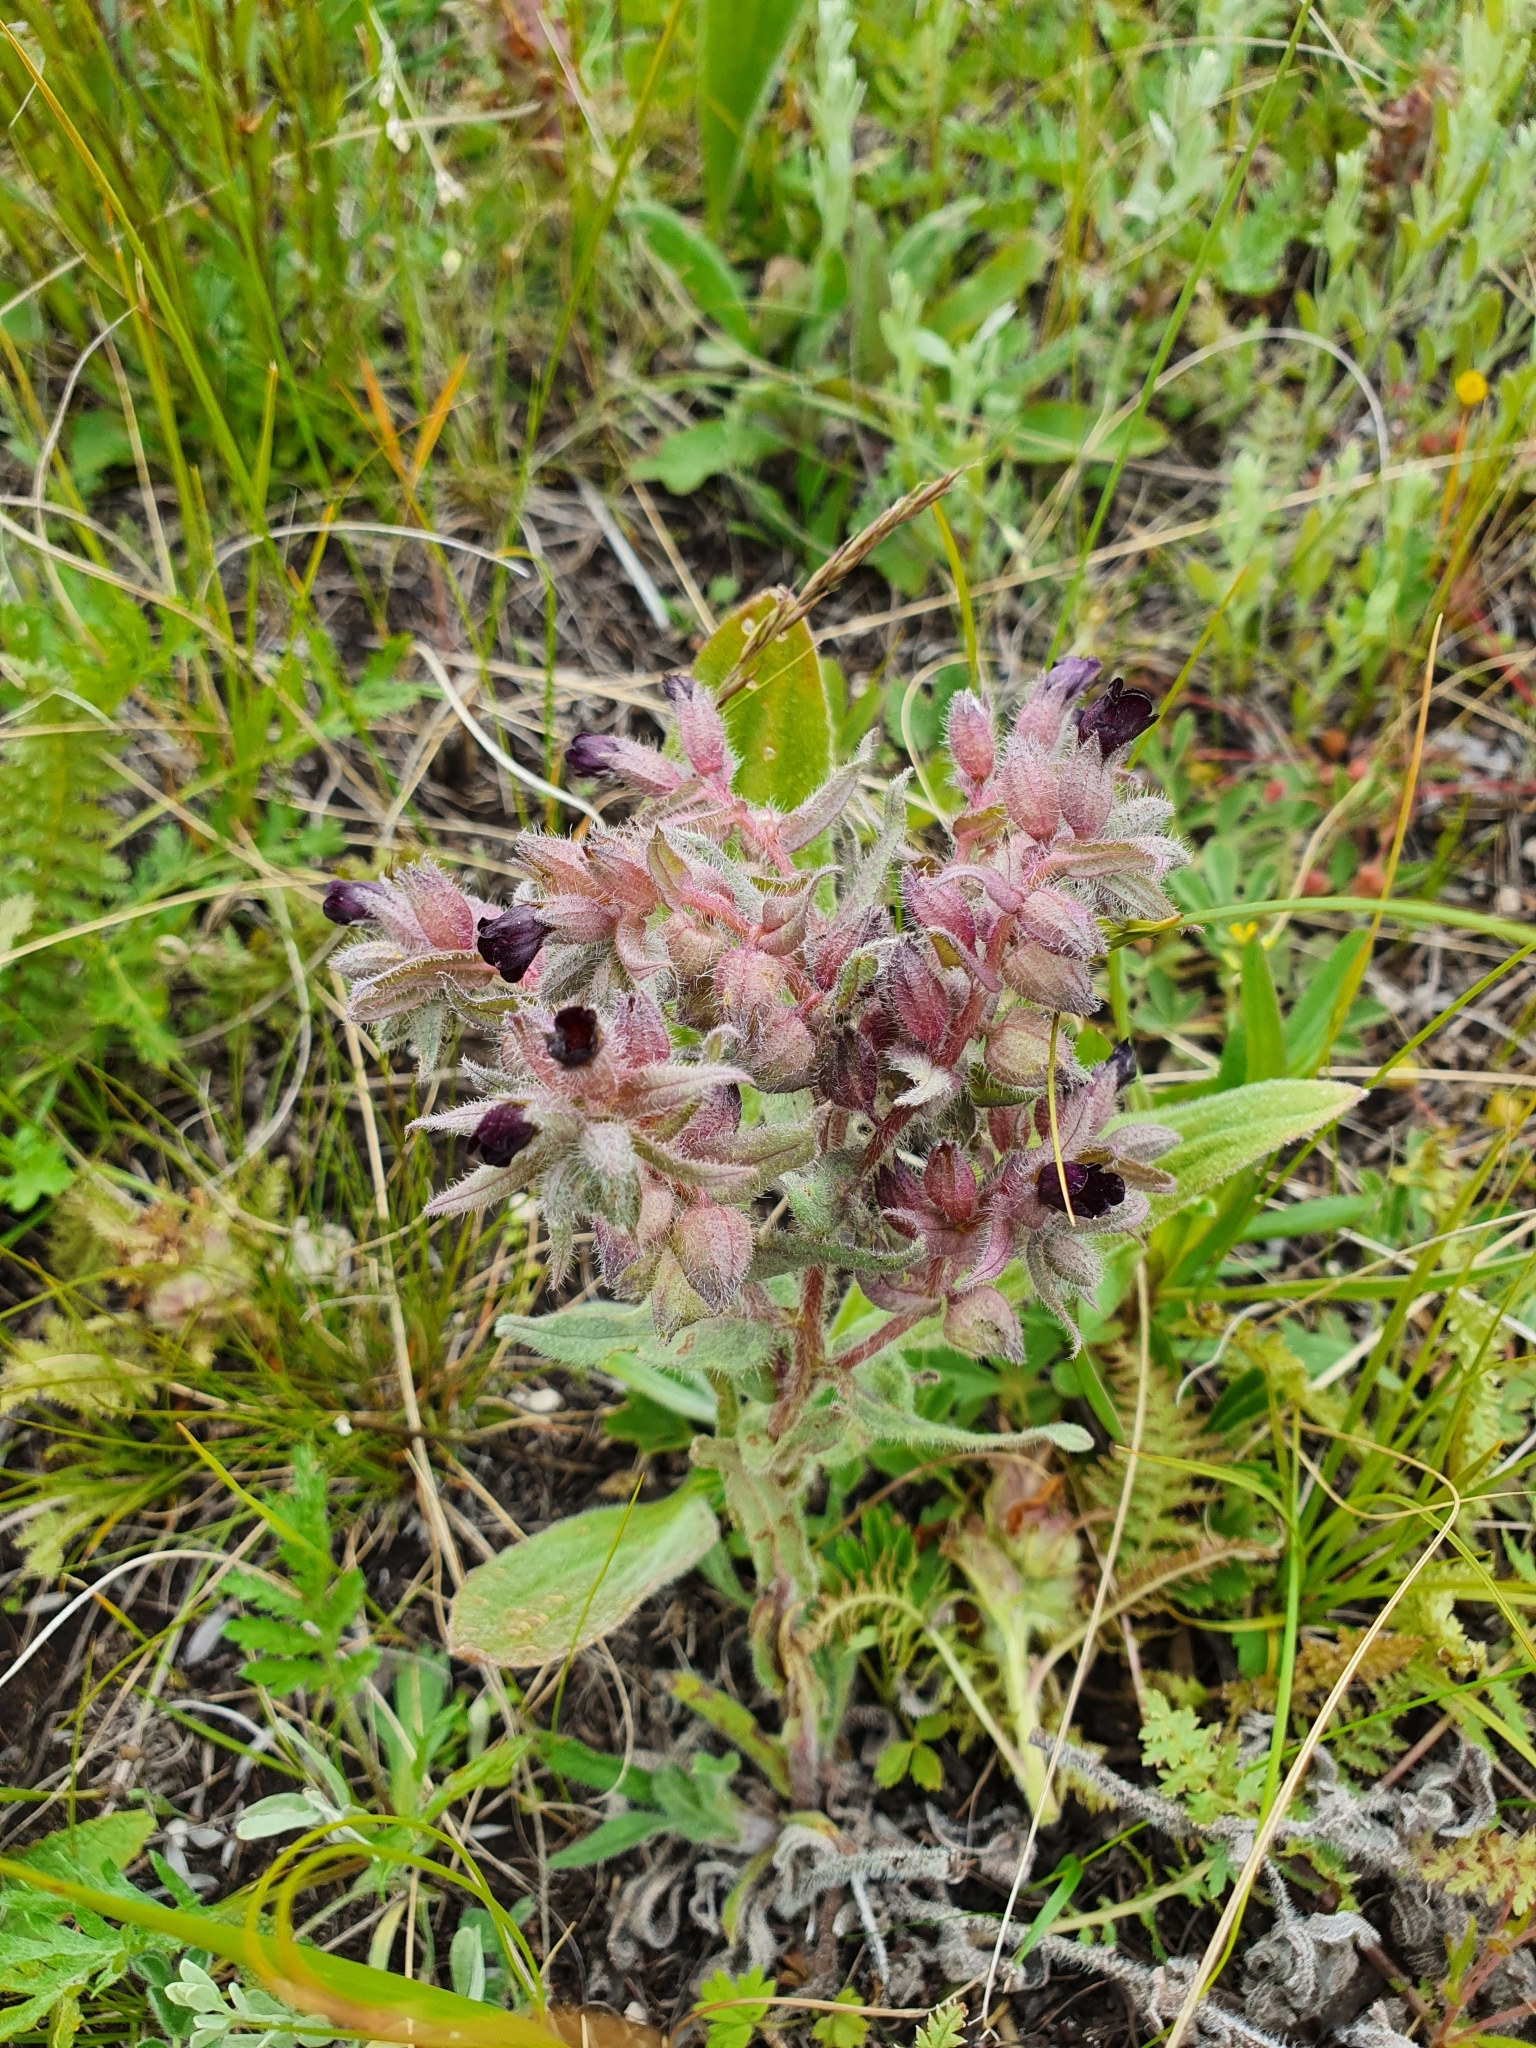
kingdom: Plantae
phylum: Tracheophyta
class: Magnoliopsida
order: Boraginales
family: Boraginaceae
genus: Nonea
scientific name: Nonea pulla
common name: Brown nonea
